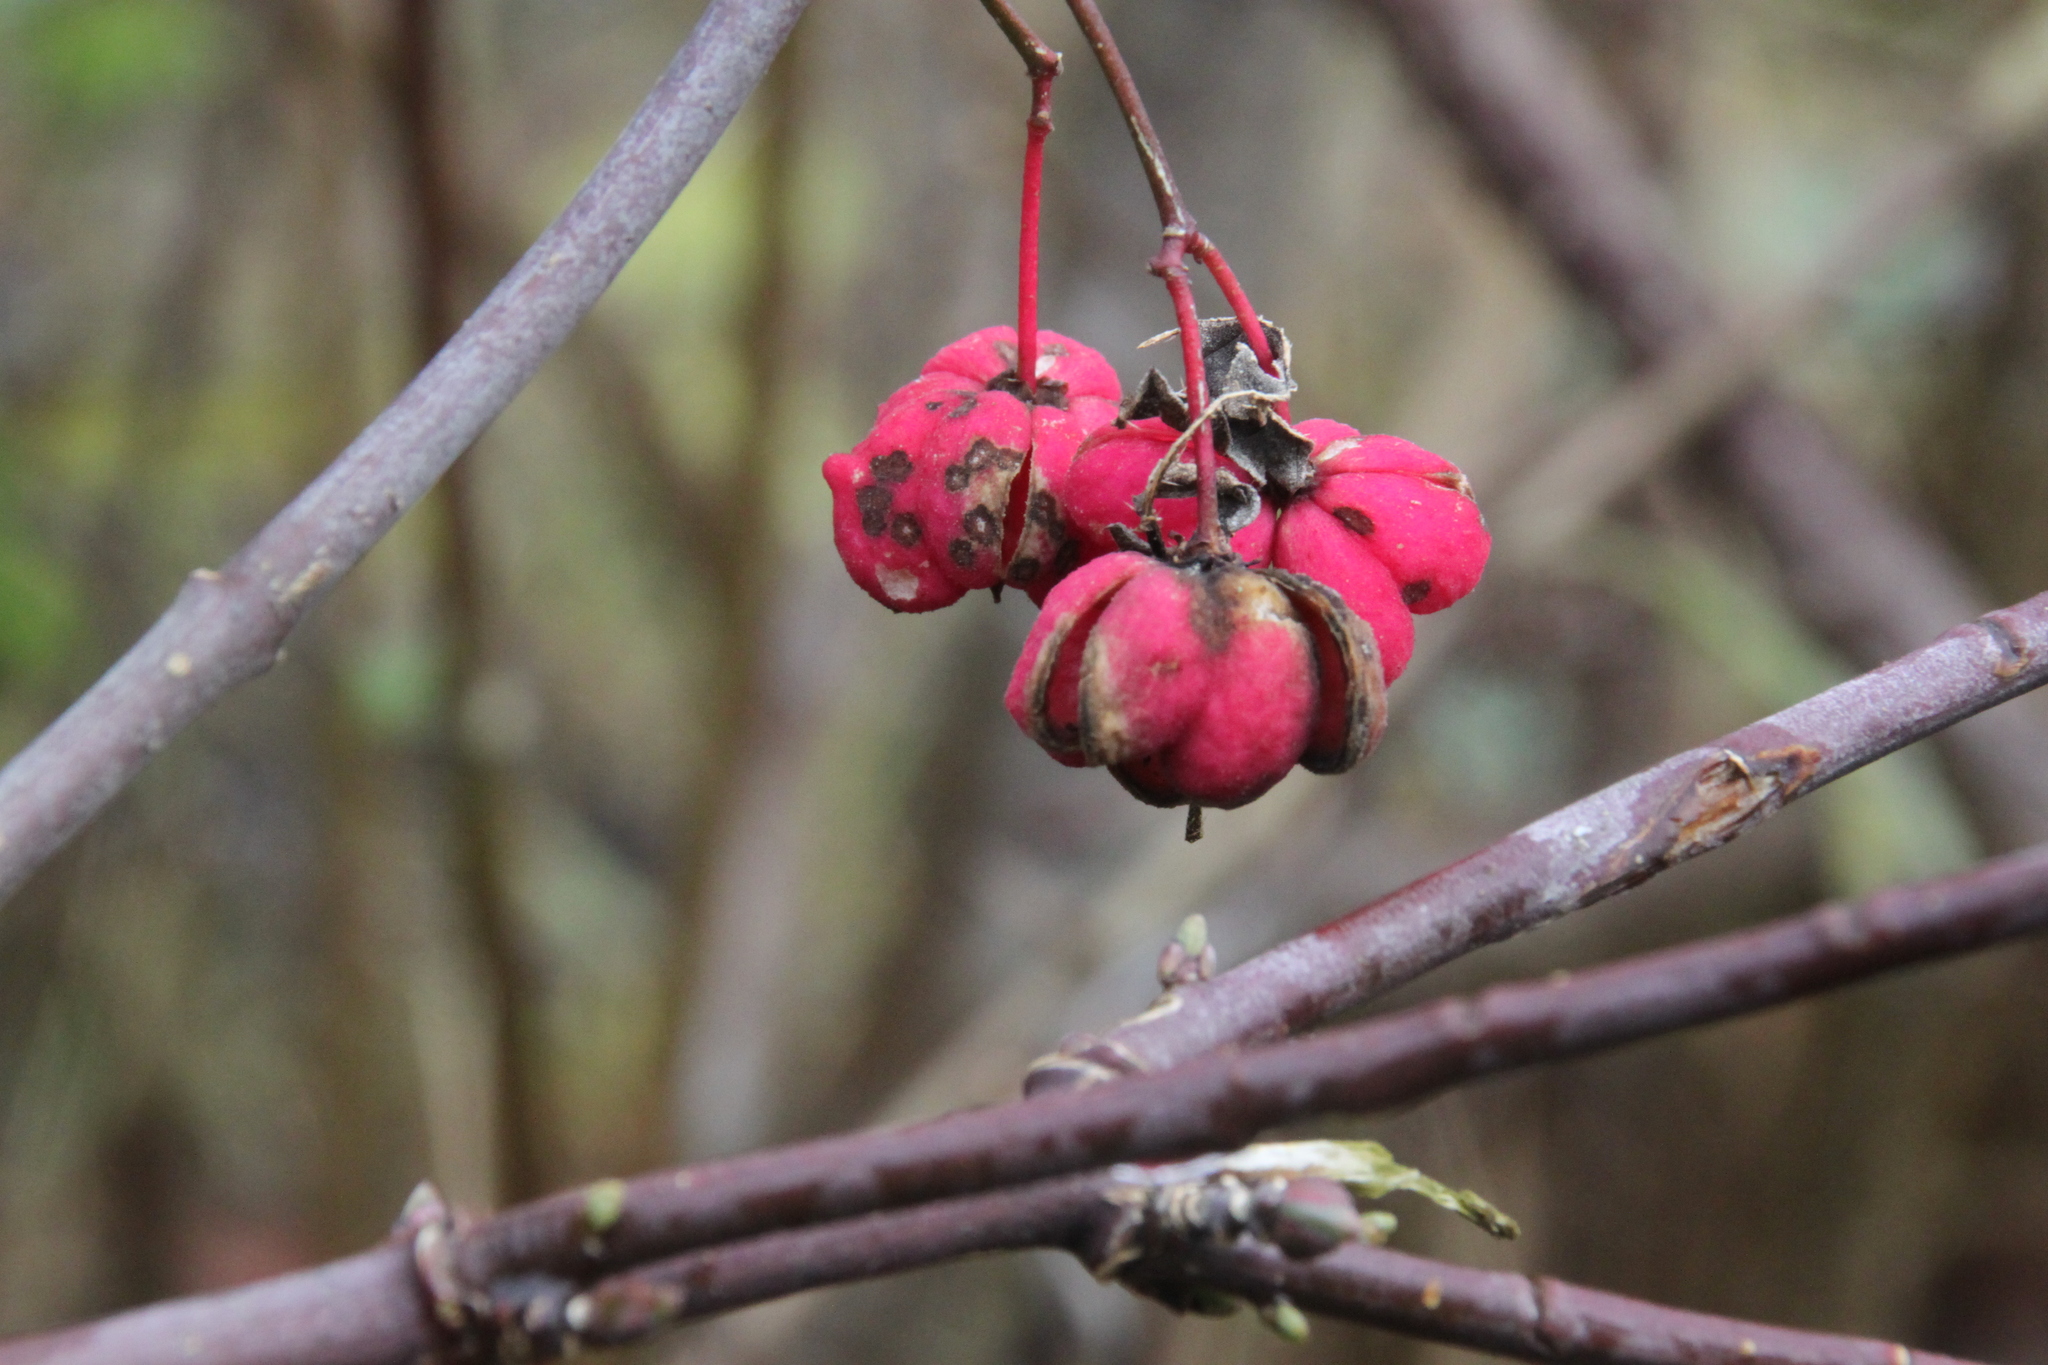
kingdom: Plantae
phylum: Tracheophyta
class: Magnoliopsida
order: Celastrales
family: Celastraceae
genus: Euonymus
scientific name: Euonymus europaeus
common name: Spindle
